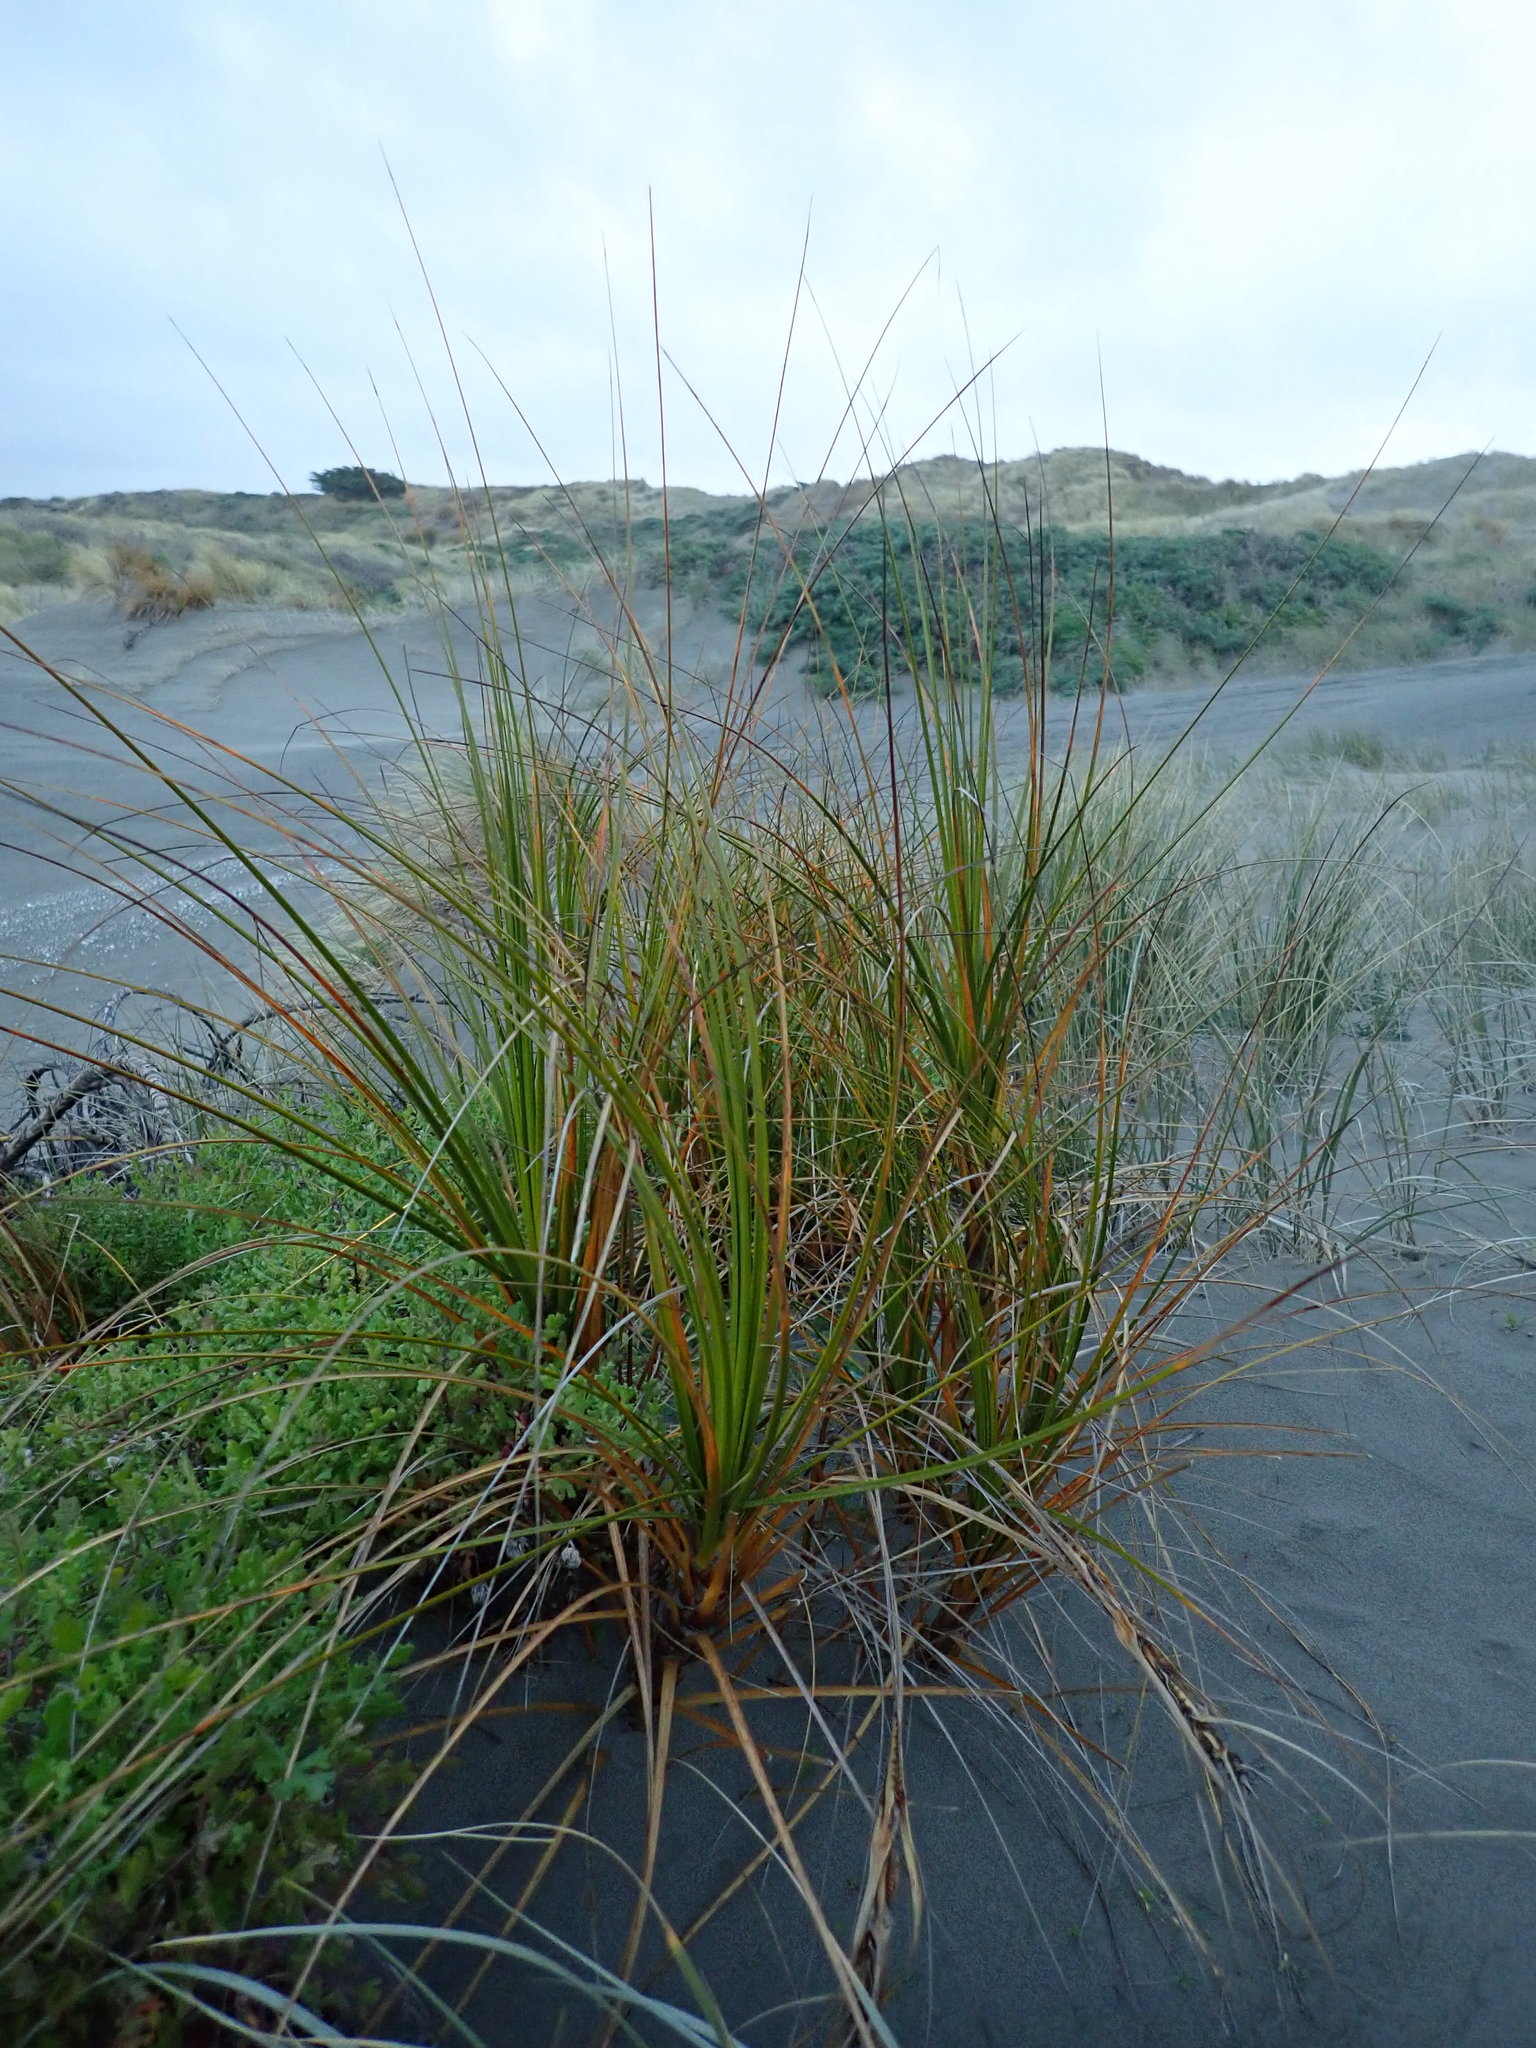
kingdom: Plantae
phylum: Tracheophyta
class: Liliopsida
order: Poales
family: Cyperaceae
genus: Ficinia
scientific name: Ficinia spiralis
